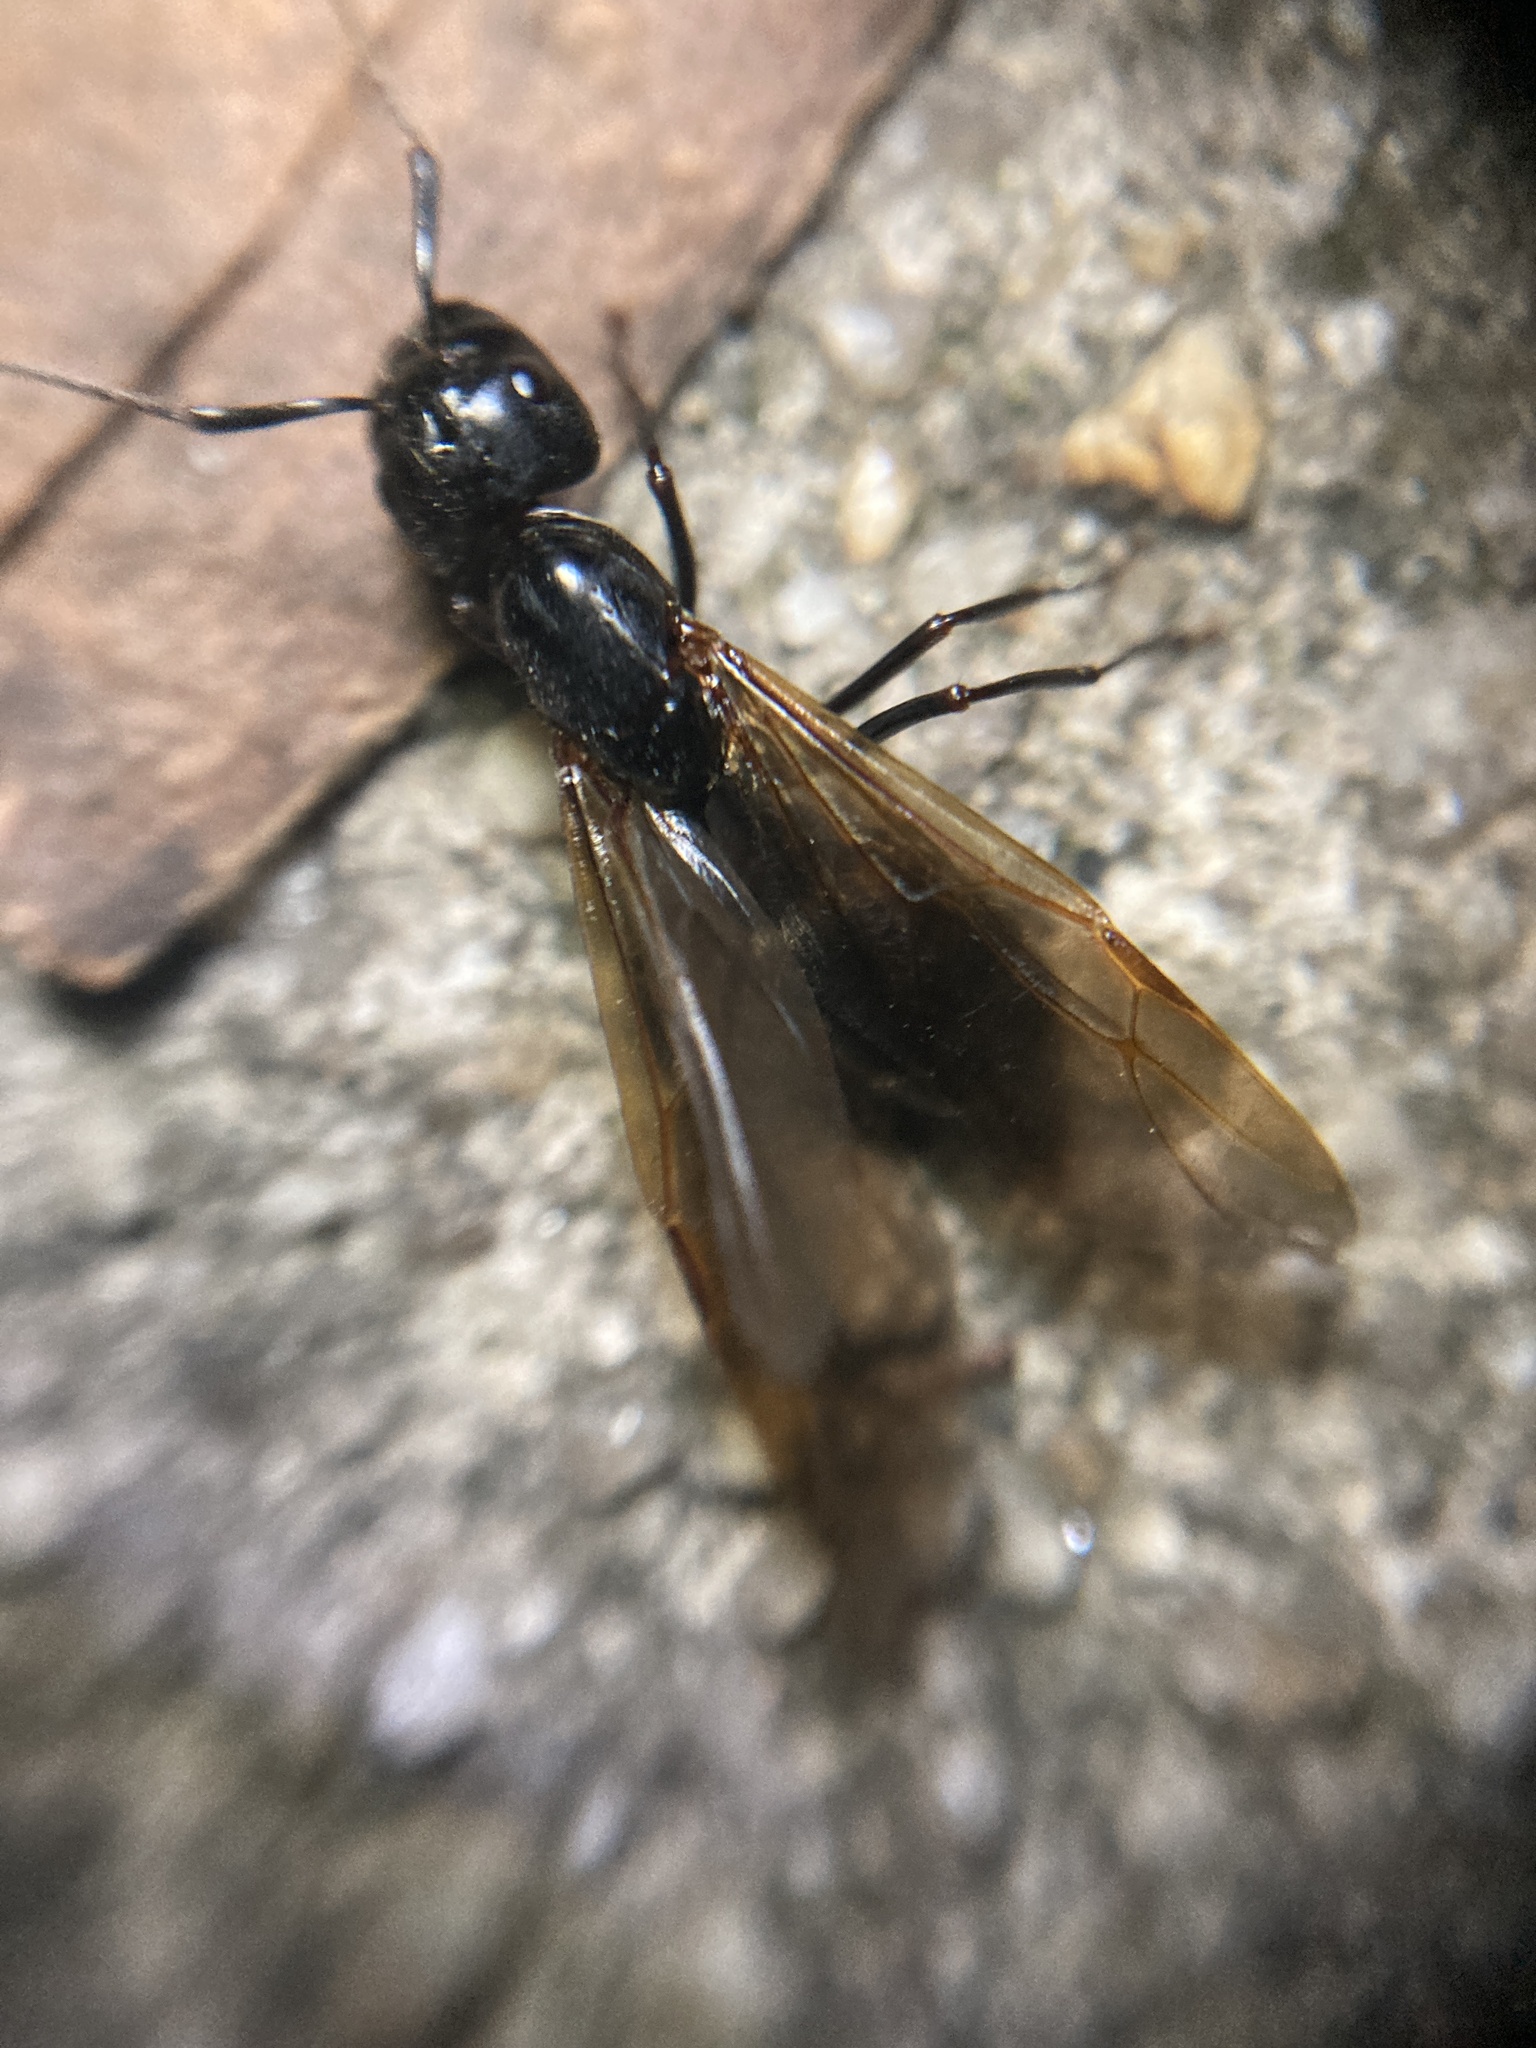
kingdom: Animalia
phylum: Arthropoda
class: Insecta
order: Hymenoptera
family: Formicidae
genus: Camponotus
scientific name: Camponotus pennsylvanicus
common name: Black carpenter ant
